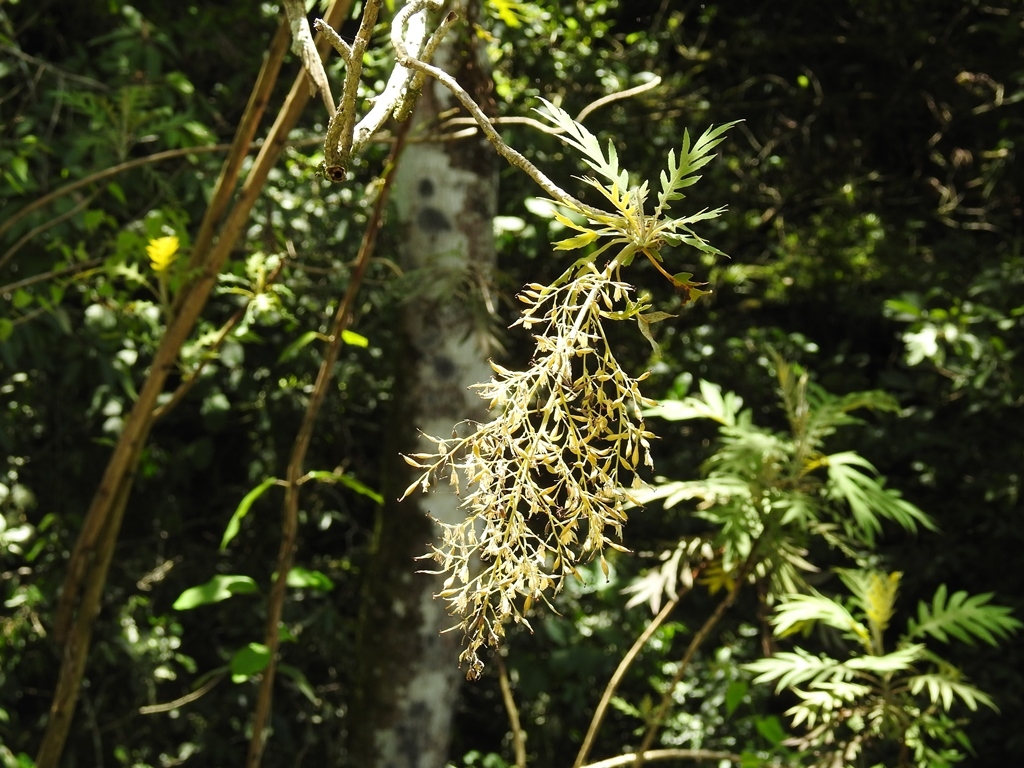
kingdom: Plantae
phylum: Tracheophyta
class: Magnoliopsida
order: Ranunculales
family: Papaveraceae
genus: Bocconia
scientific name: Bocconia arborea
